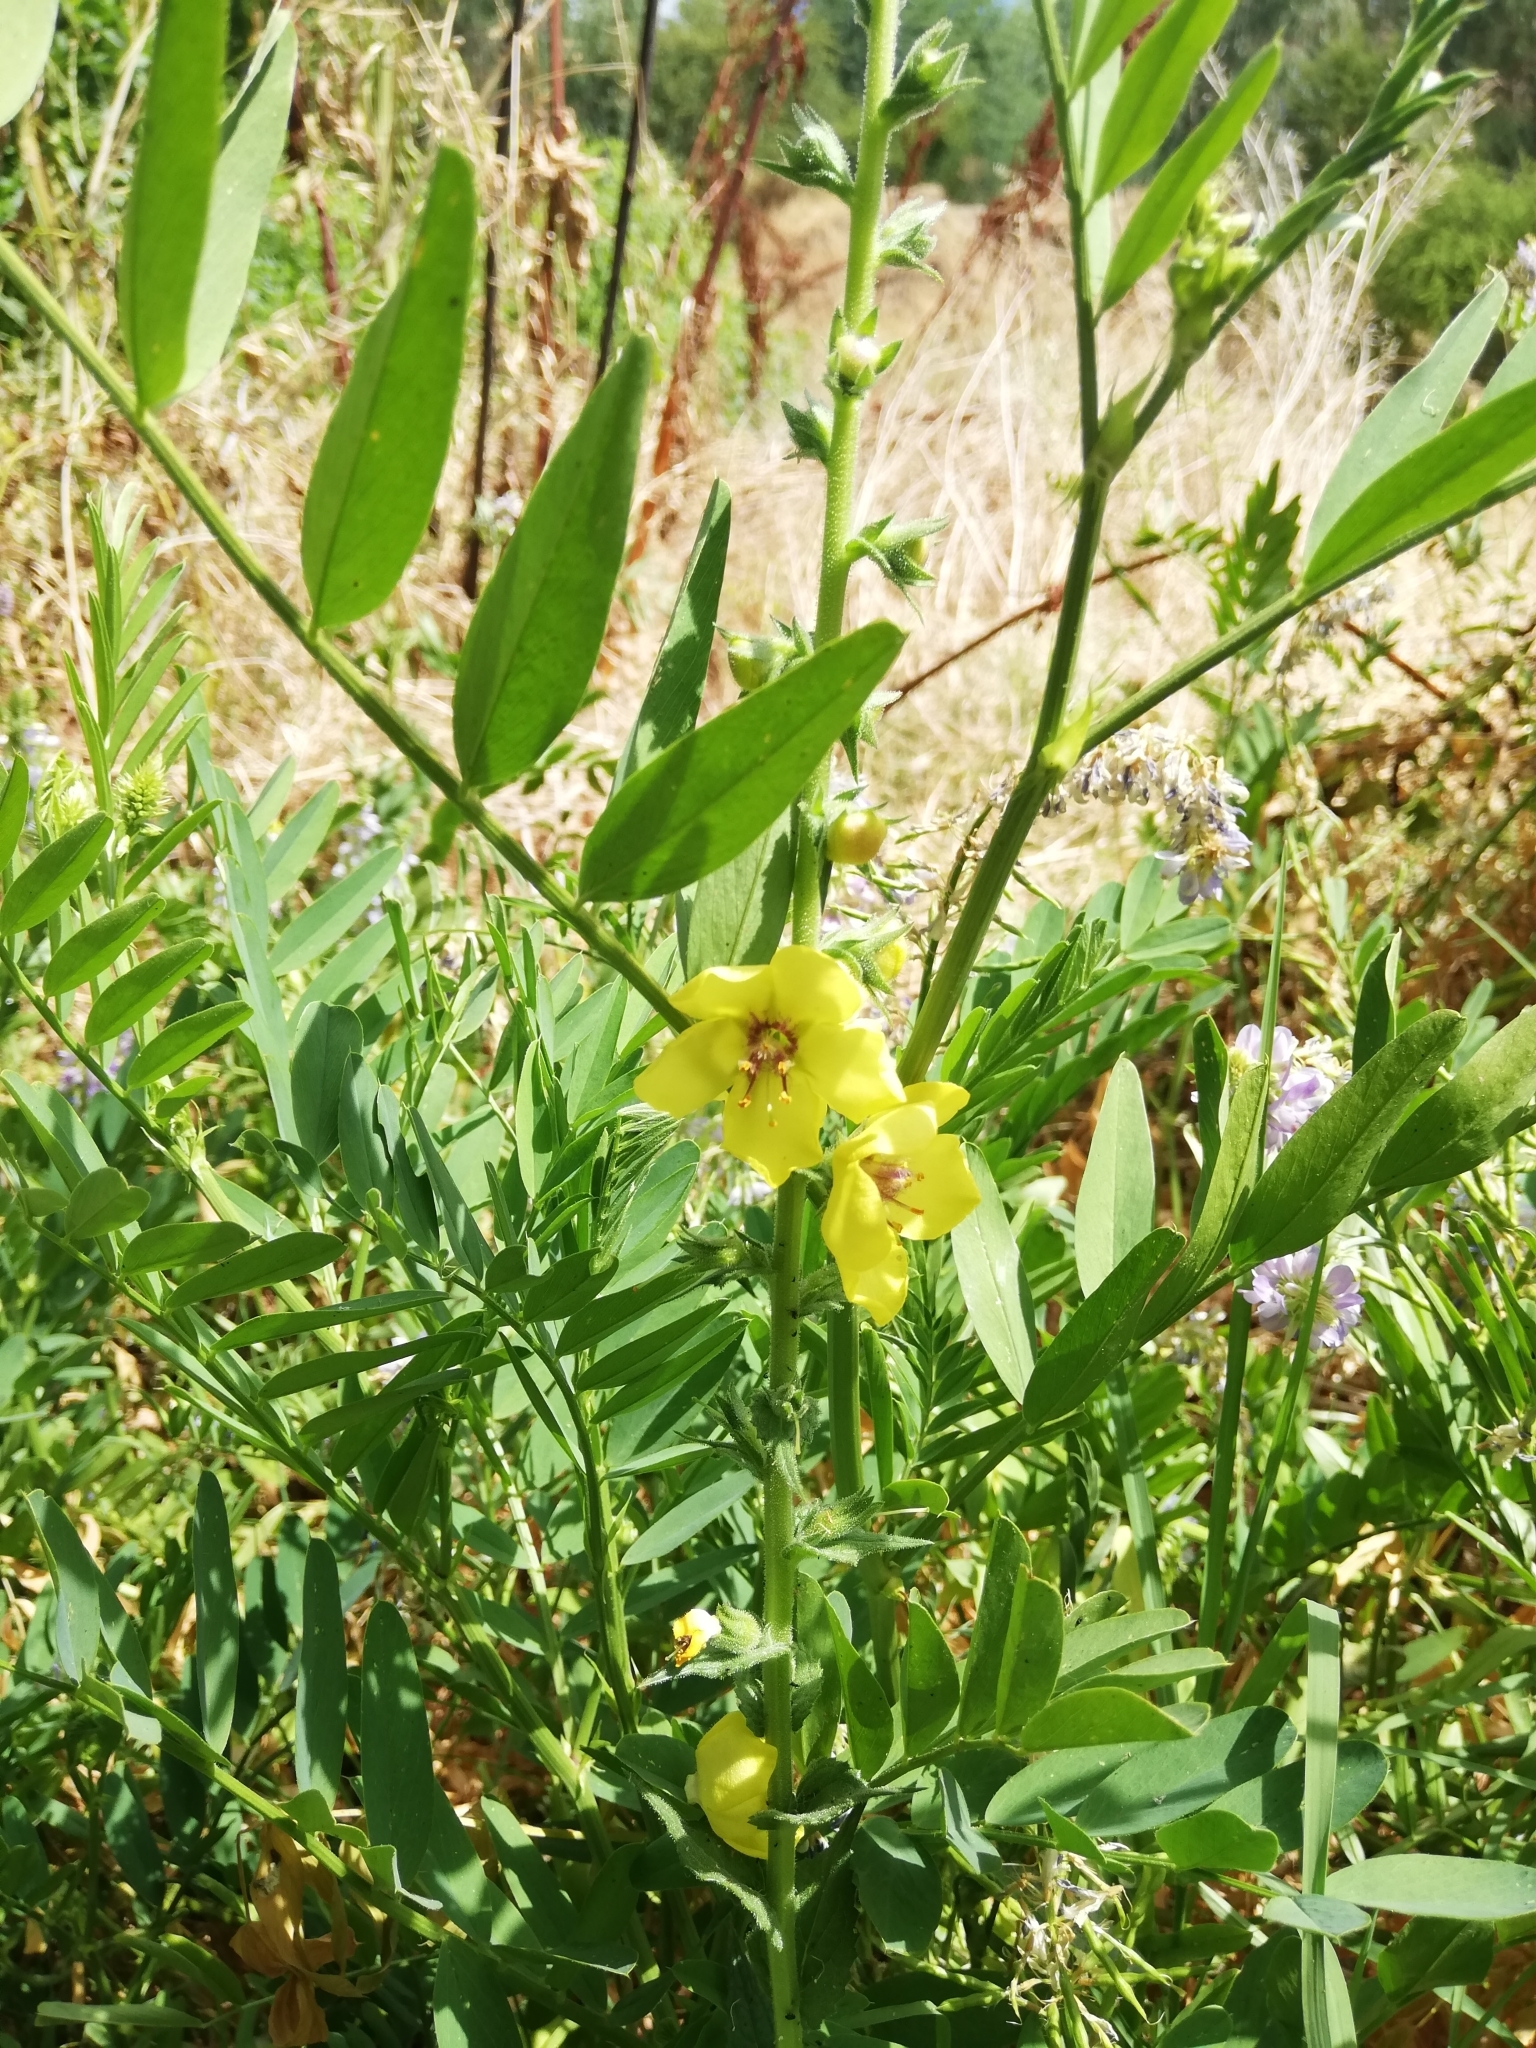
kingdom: Plantae
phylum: Tracheophyta
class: Magnoliopsida
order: Lamiales
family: Scrophulariaceae
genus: Verbascum
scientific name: Verbascum virgatum
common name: Twiggy mullein
